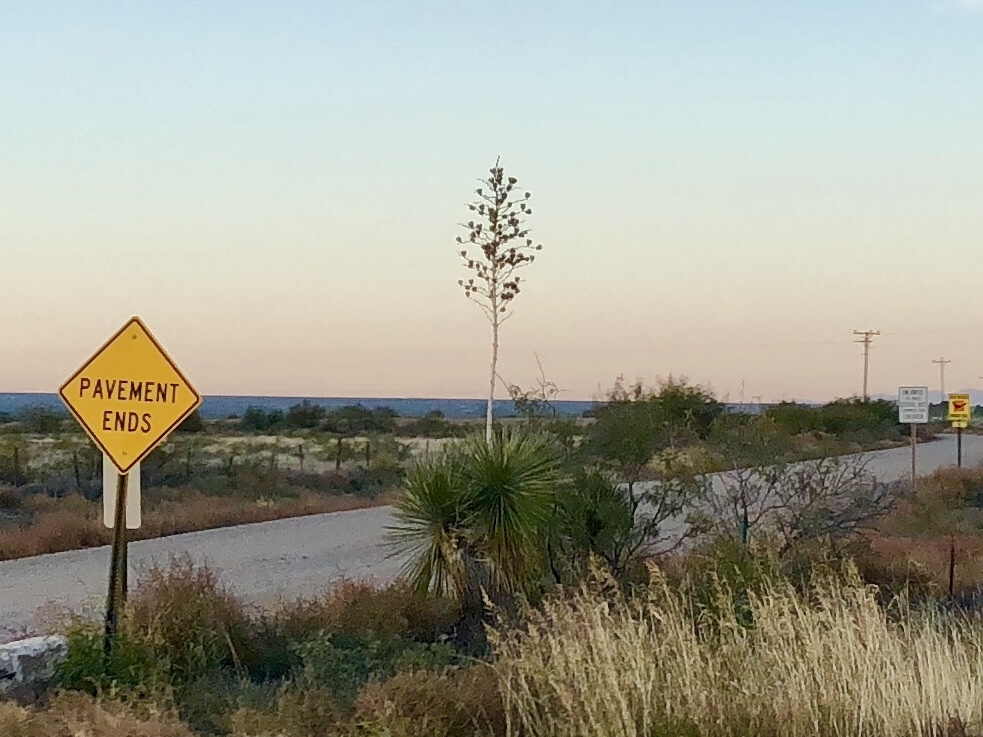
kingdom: Plantae
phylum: Tracheophyta
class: Liliopsida
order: Asparagales
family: Asparagaceae
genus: Yucca
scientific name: Yucca elata
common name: Palmella
